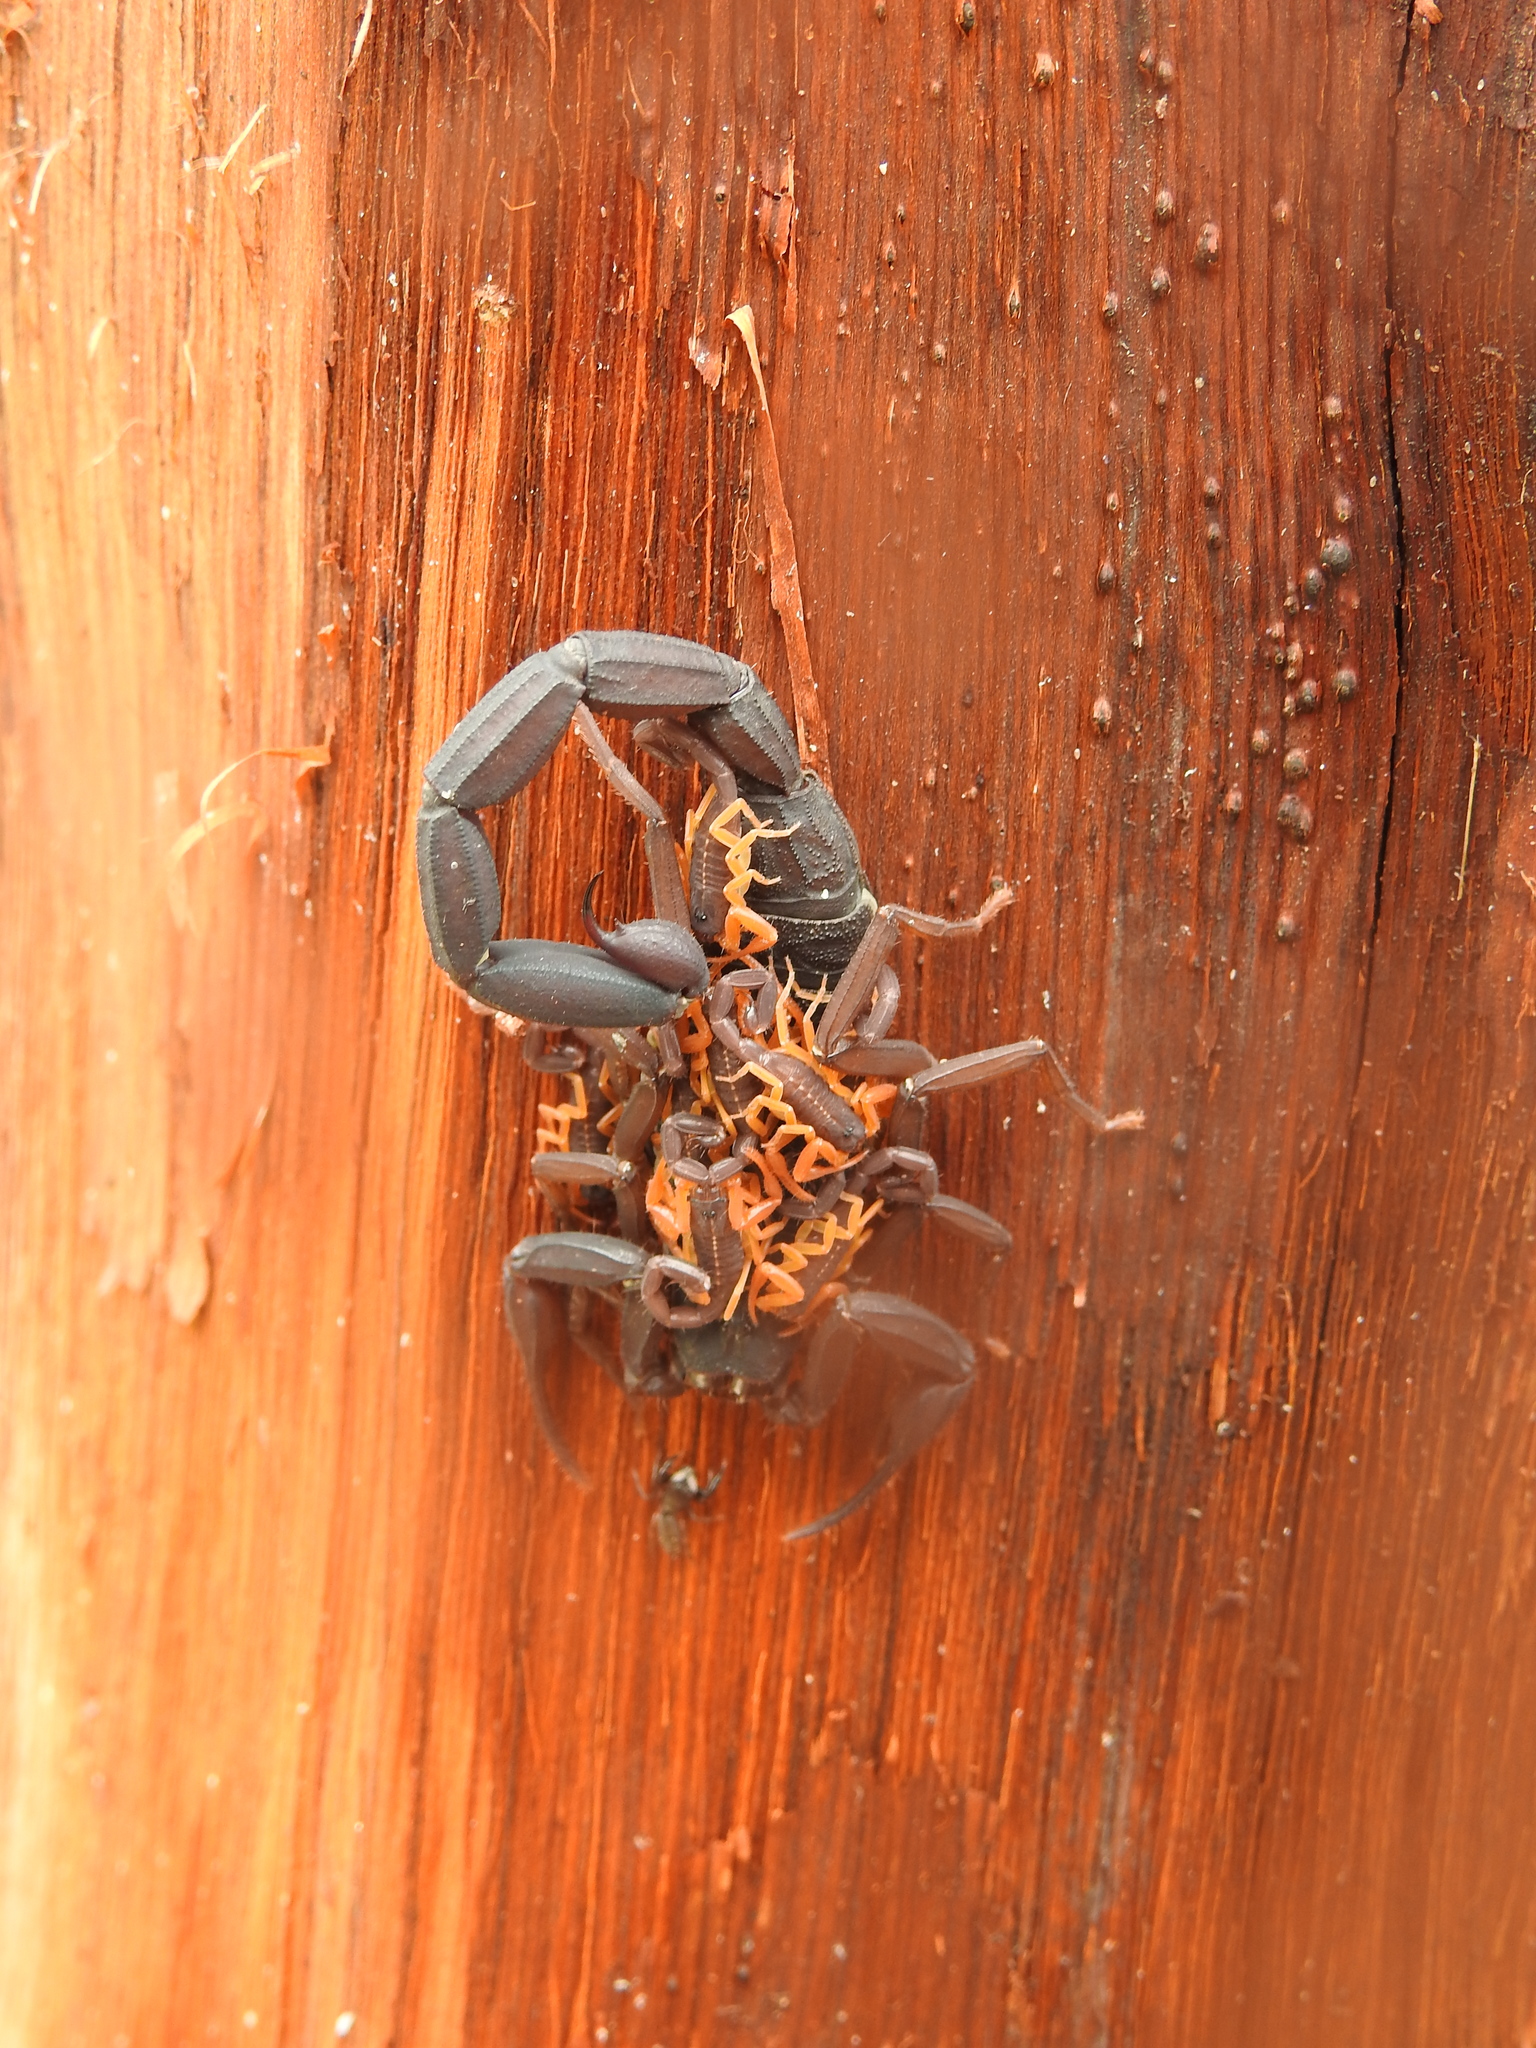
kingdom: Animalia
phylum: Arthropoda
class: Arachnida
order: Scorpiones
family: Buthidae
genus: Centruroides
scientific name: Centruroides gracilis
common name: Scorpions
